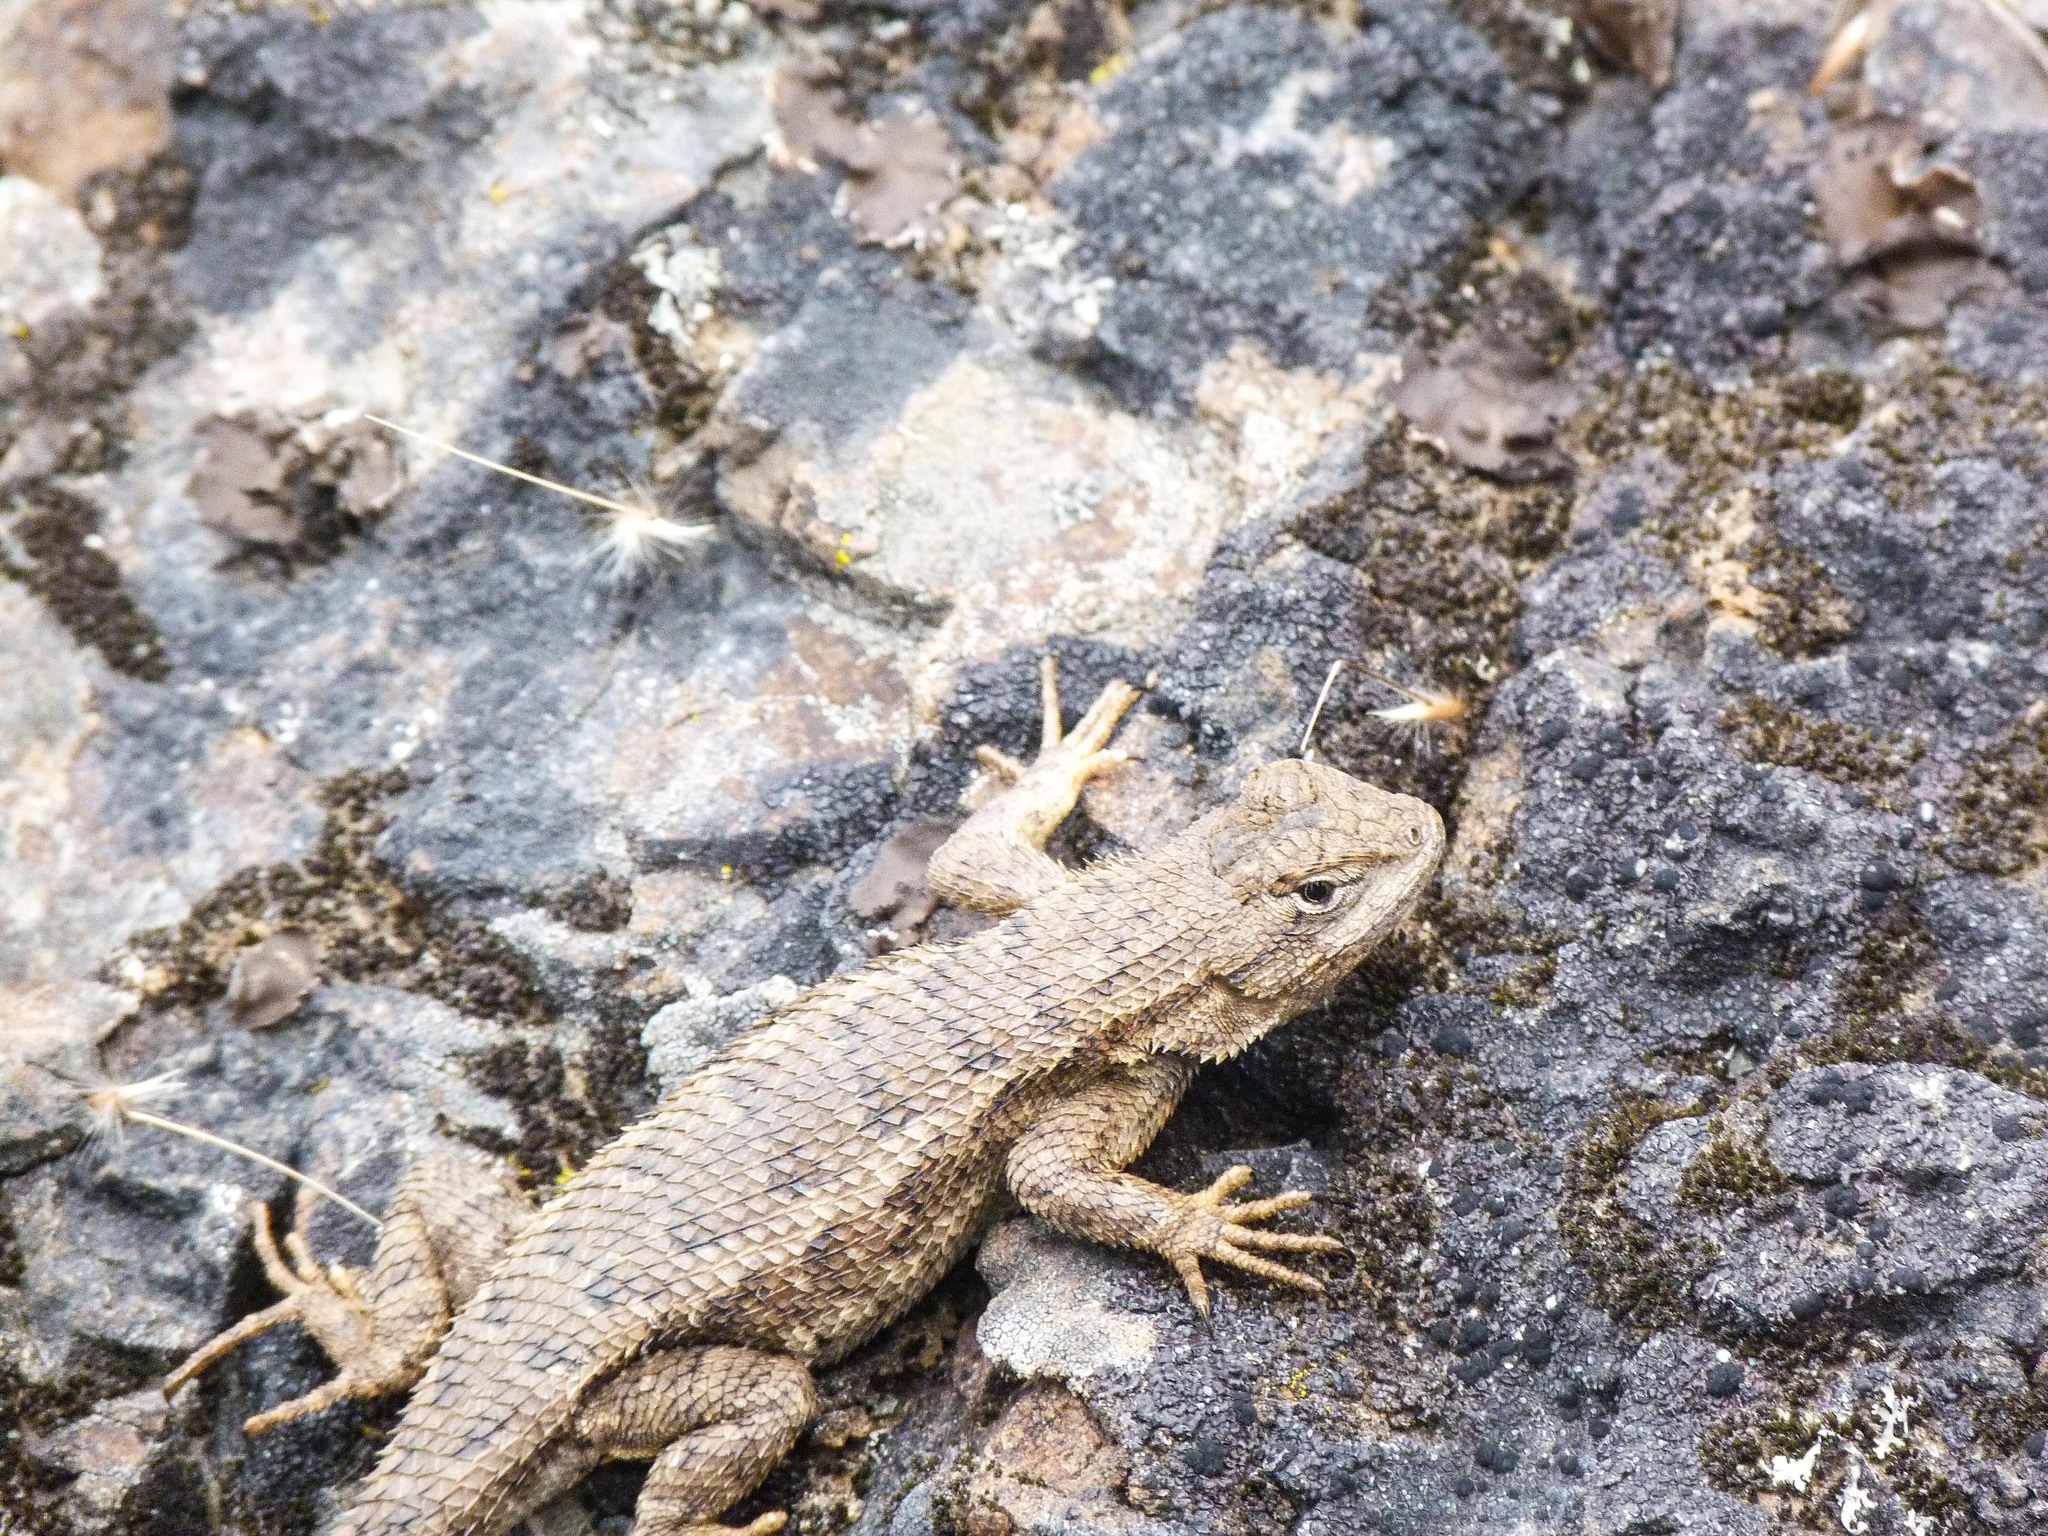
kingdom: Animalia
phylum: Chordata
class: Squamata
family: Phrynosomatidae
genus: Sceloporus
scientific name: Sceloporus occidentalis
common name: Western fence lizard
